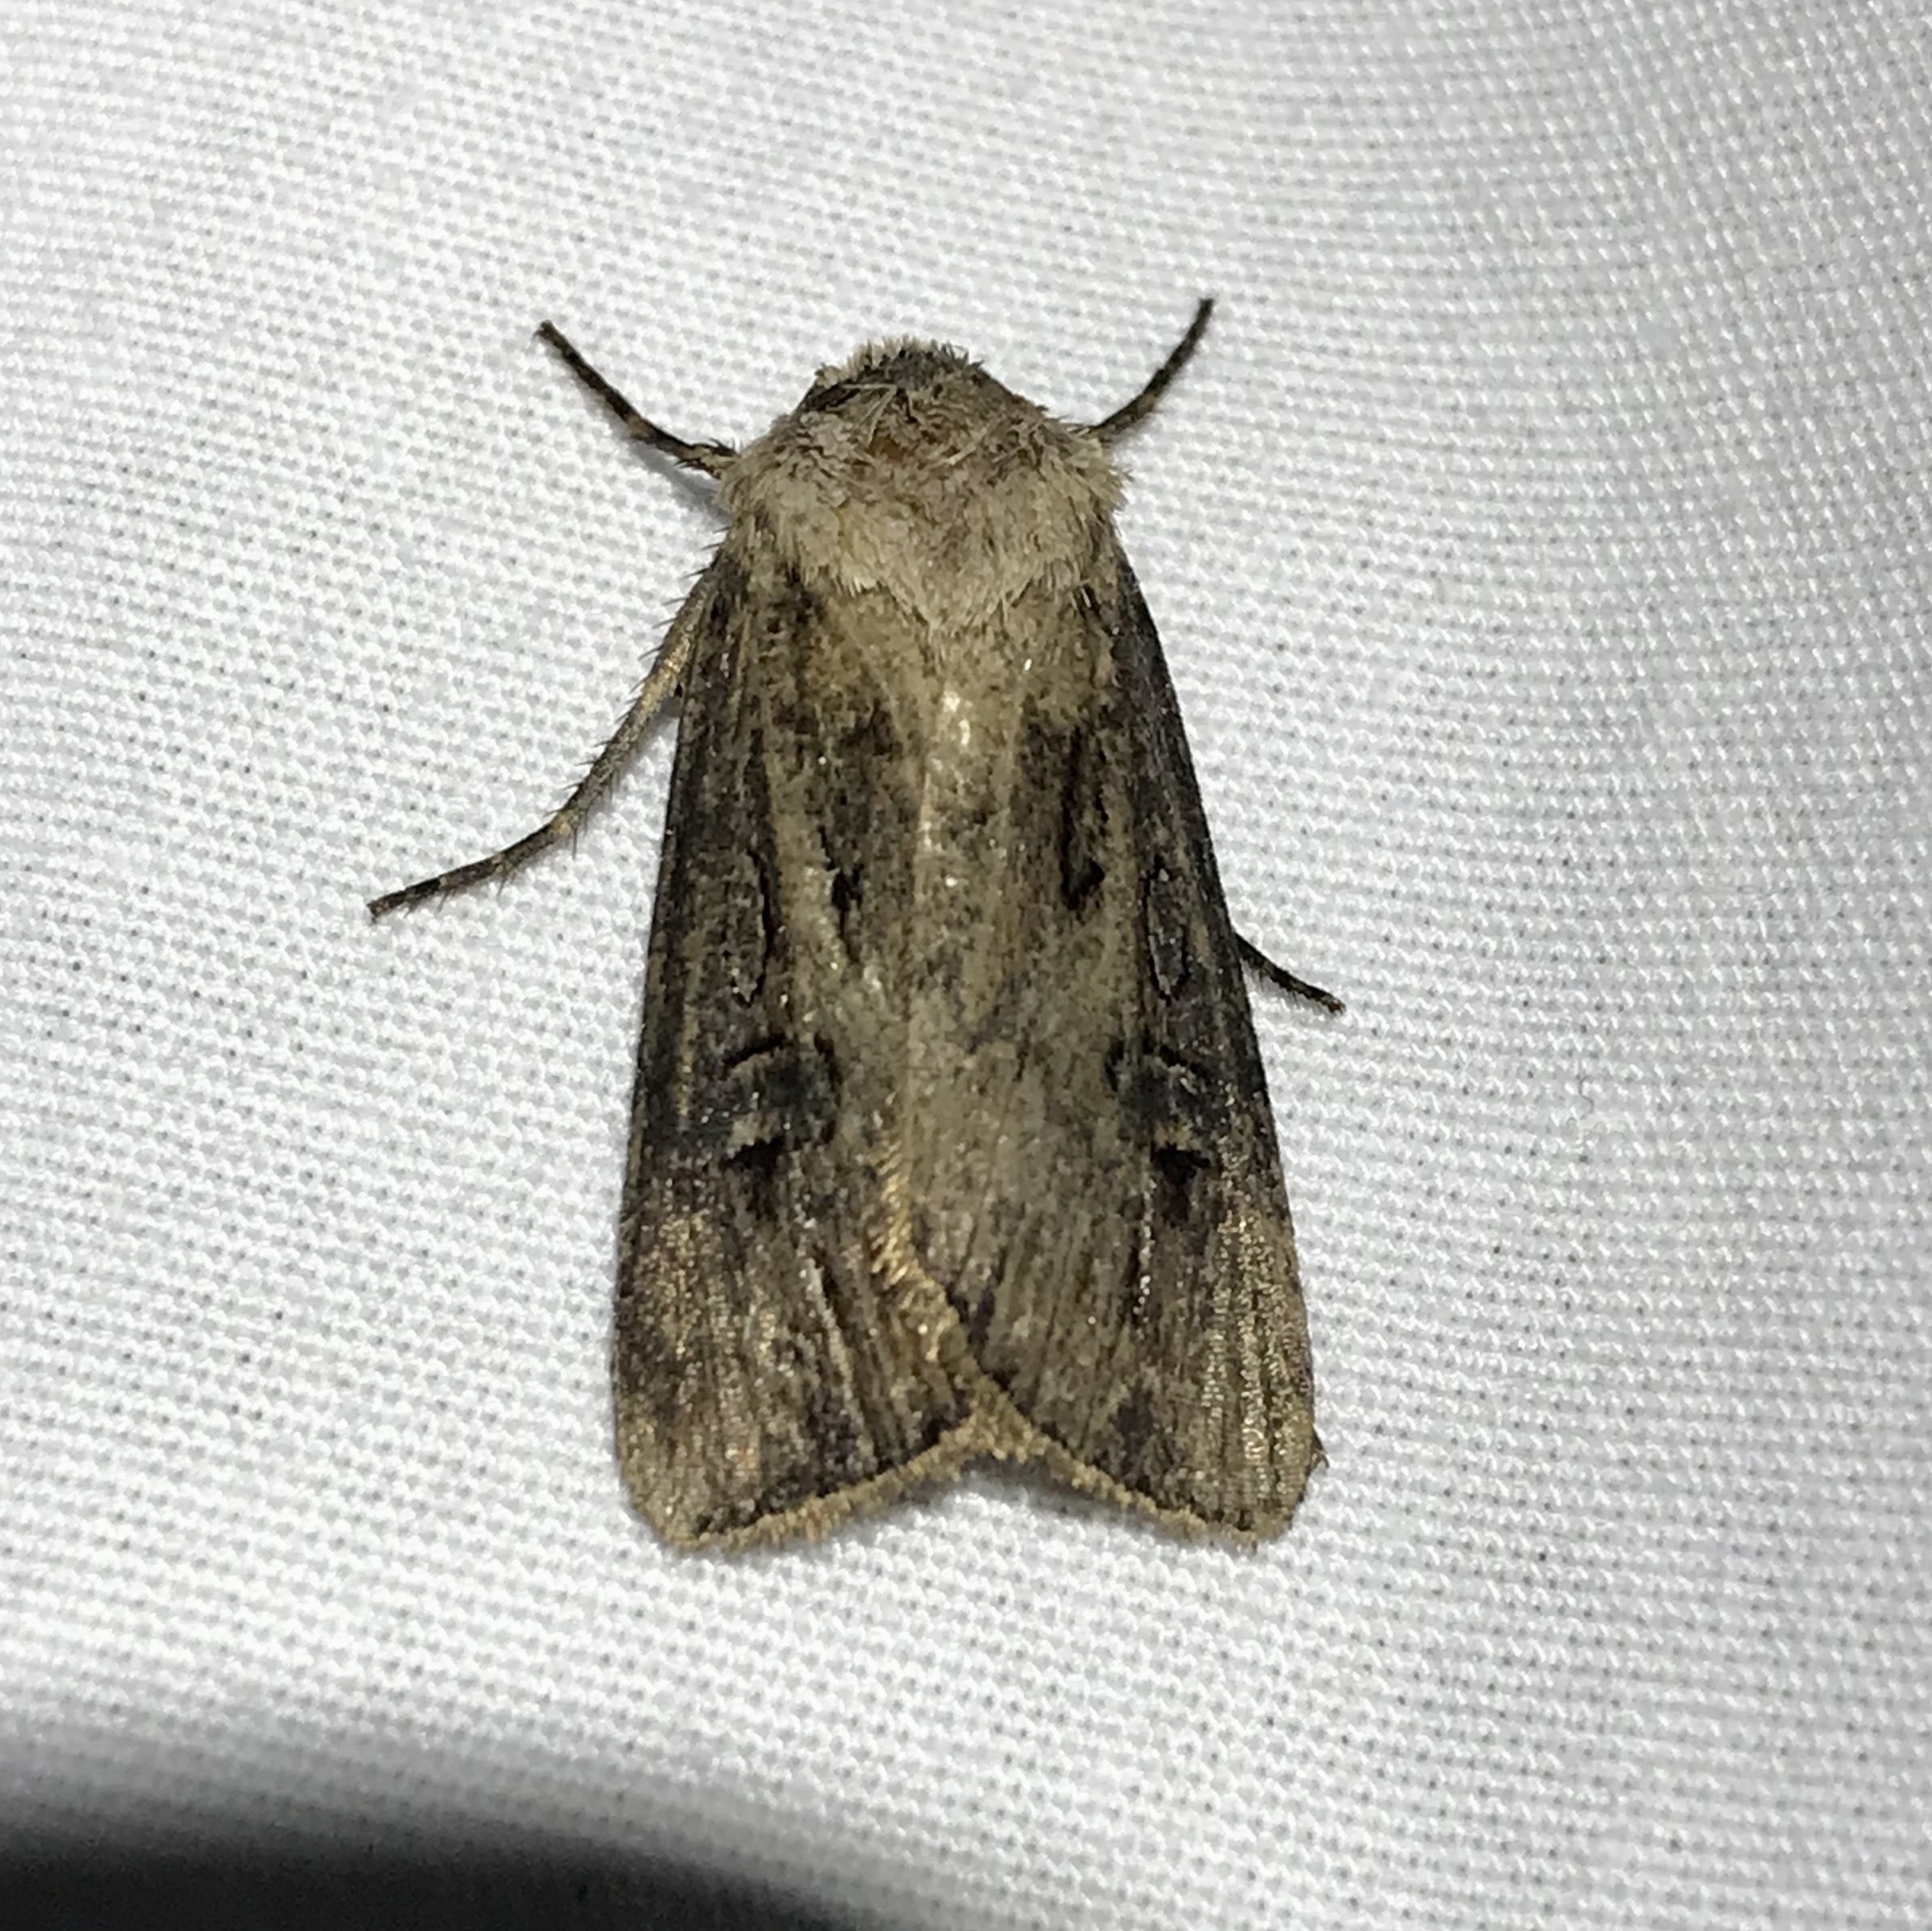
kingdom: Animalia
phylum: Arthropoda
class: Insecta
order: Lepidoptera
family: Noctuidae
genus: Agrotis
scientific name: Agrotis venerabilis
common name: Venerable dart
